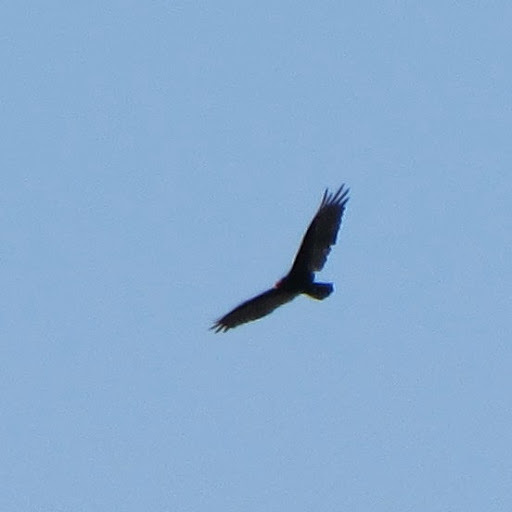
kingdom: Animalia
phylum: Chordata
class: Aves
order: Accipitriformes
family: Cathartidae
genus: Cathartes
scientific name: Cathartes aura
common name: Turkey vulture
